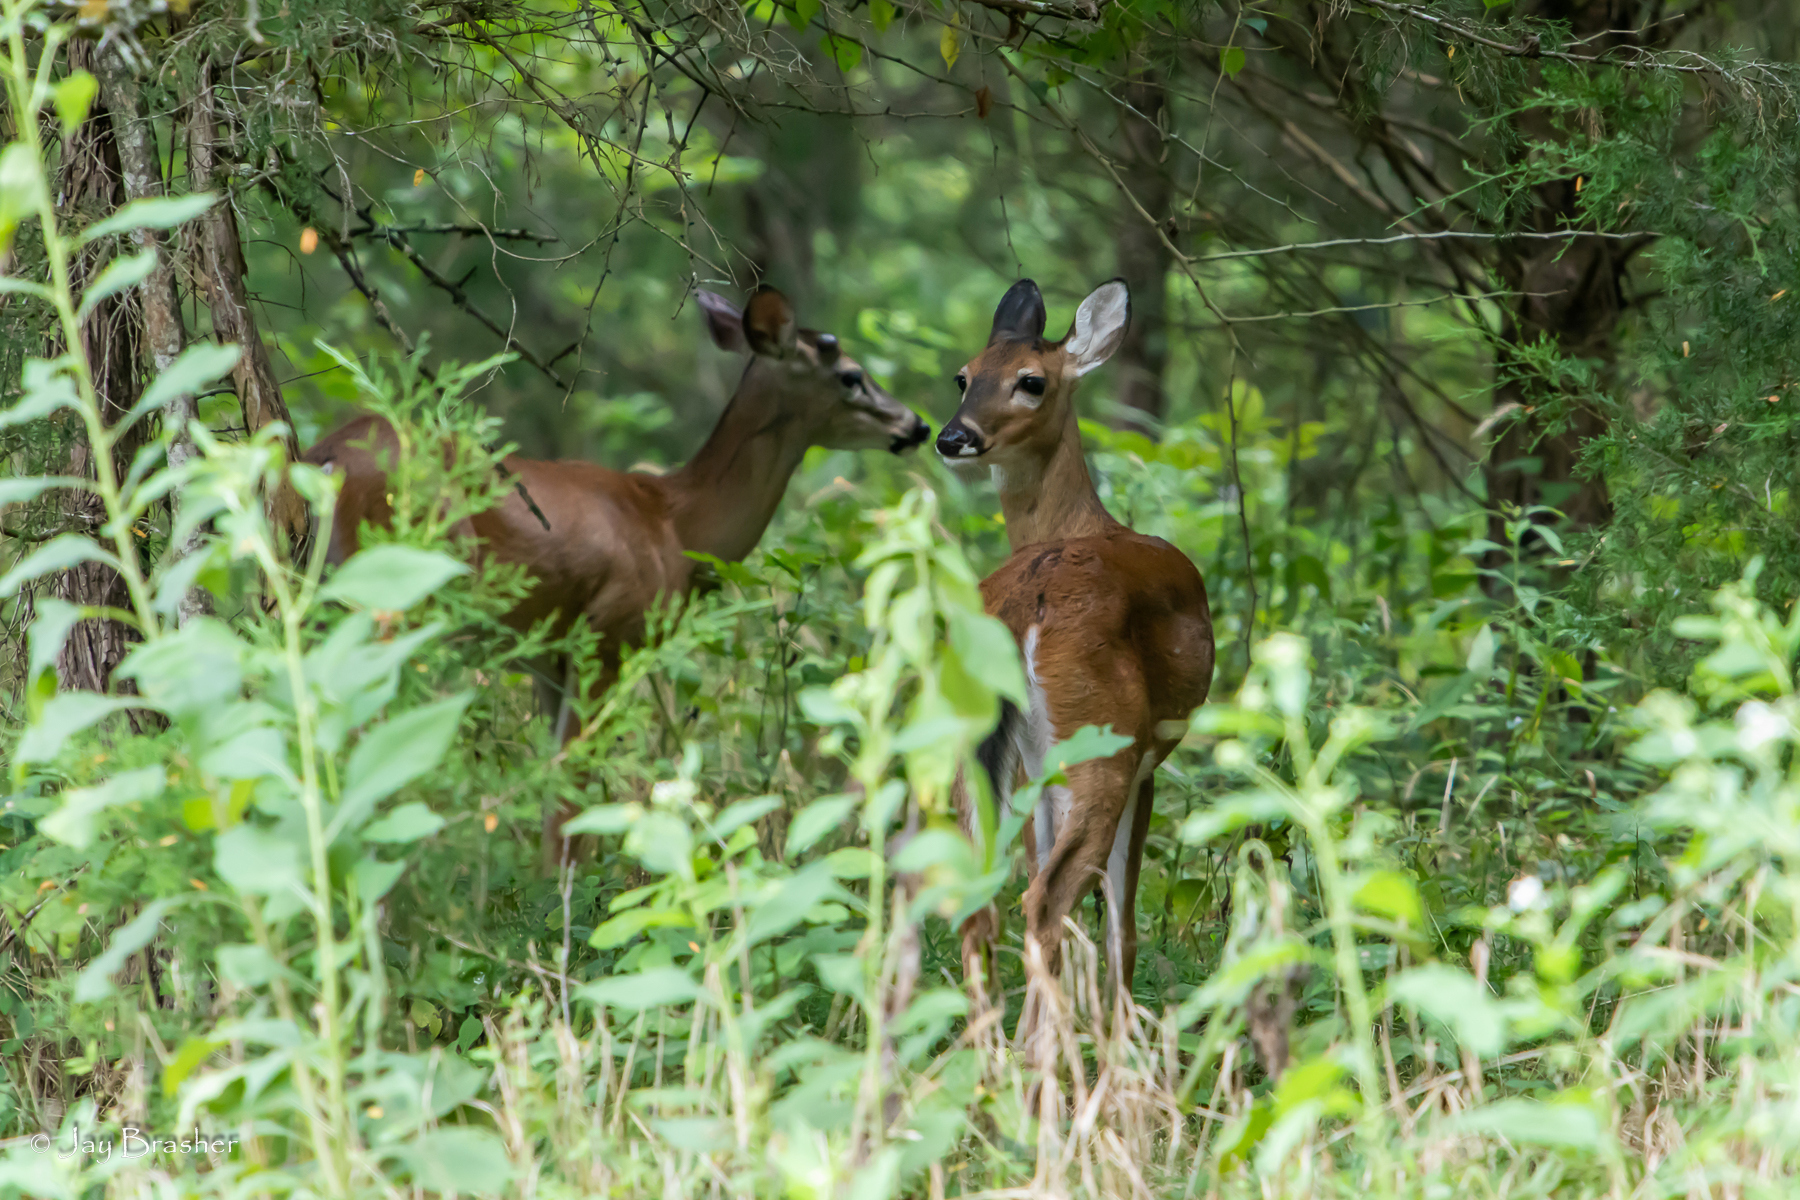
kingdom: Animalia
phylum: Chordata
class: Mammalia
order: Artiodactyla
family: Cervidae
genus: Odocoileus
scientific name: Odocoileus virginianus
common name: White-tailed deer
